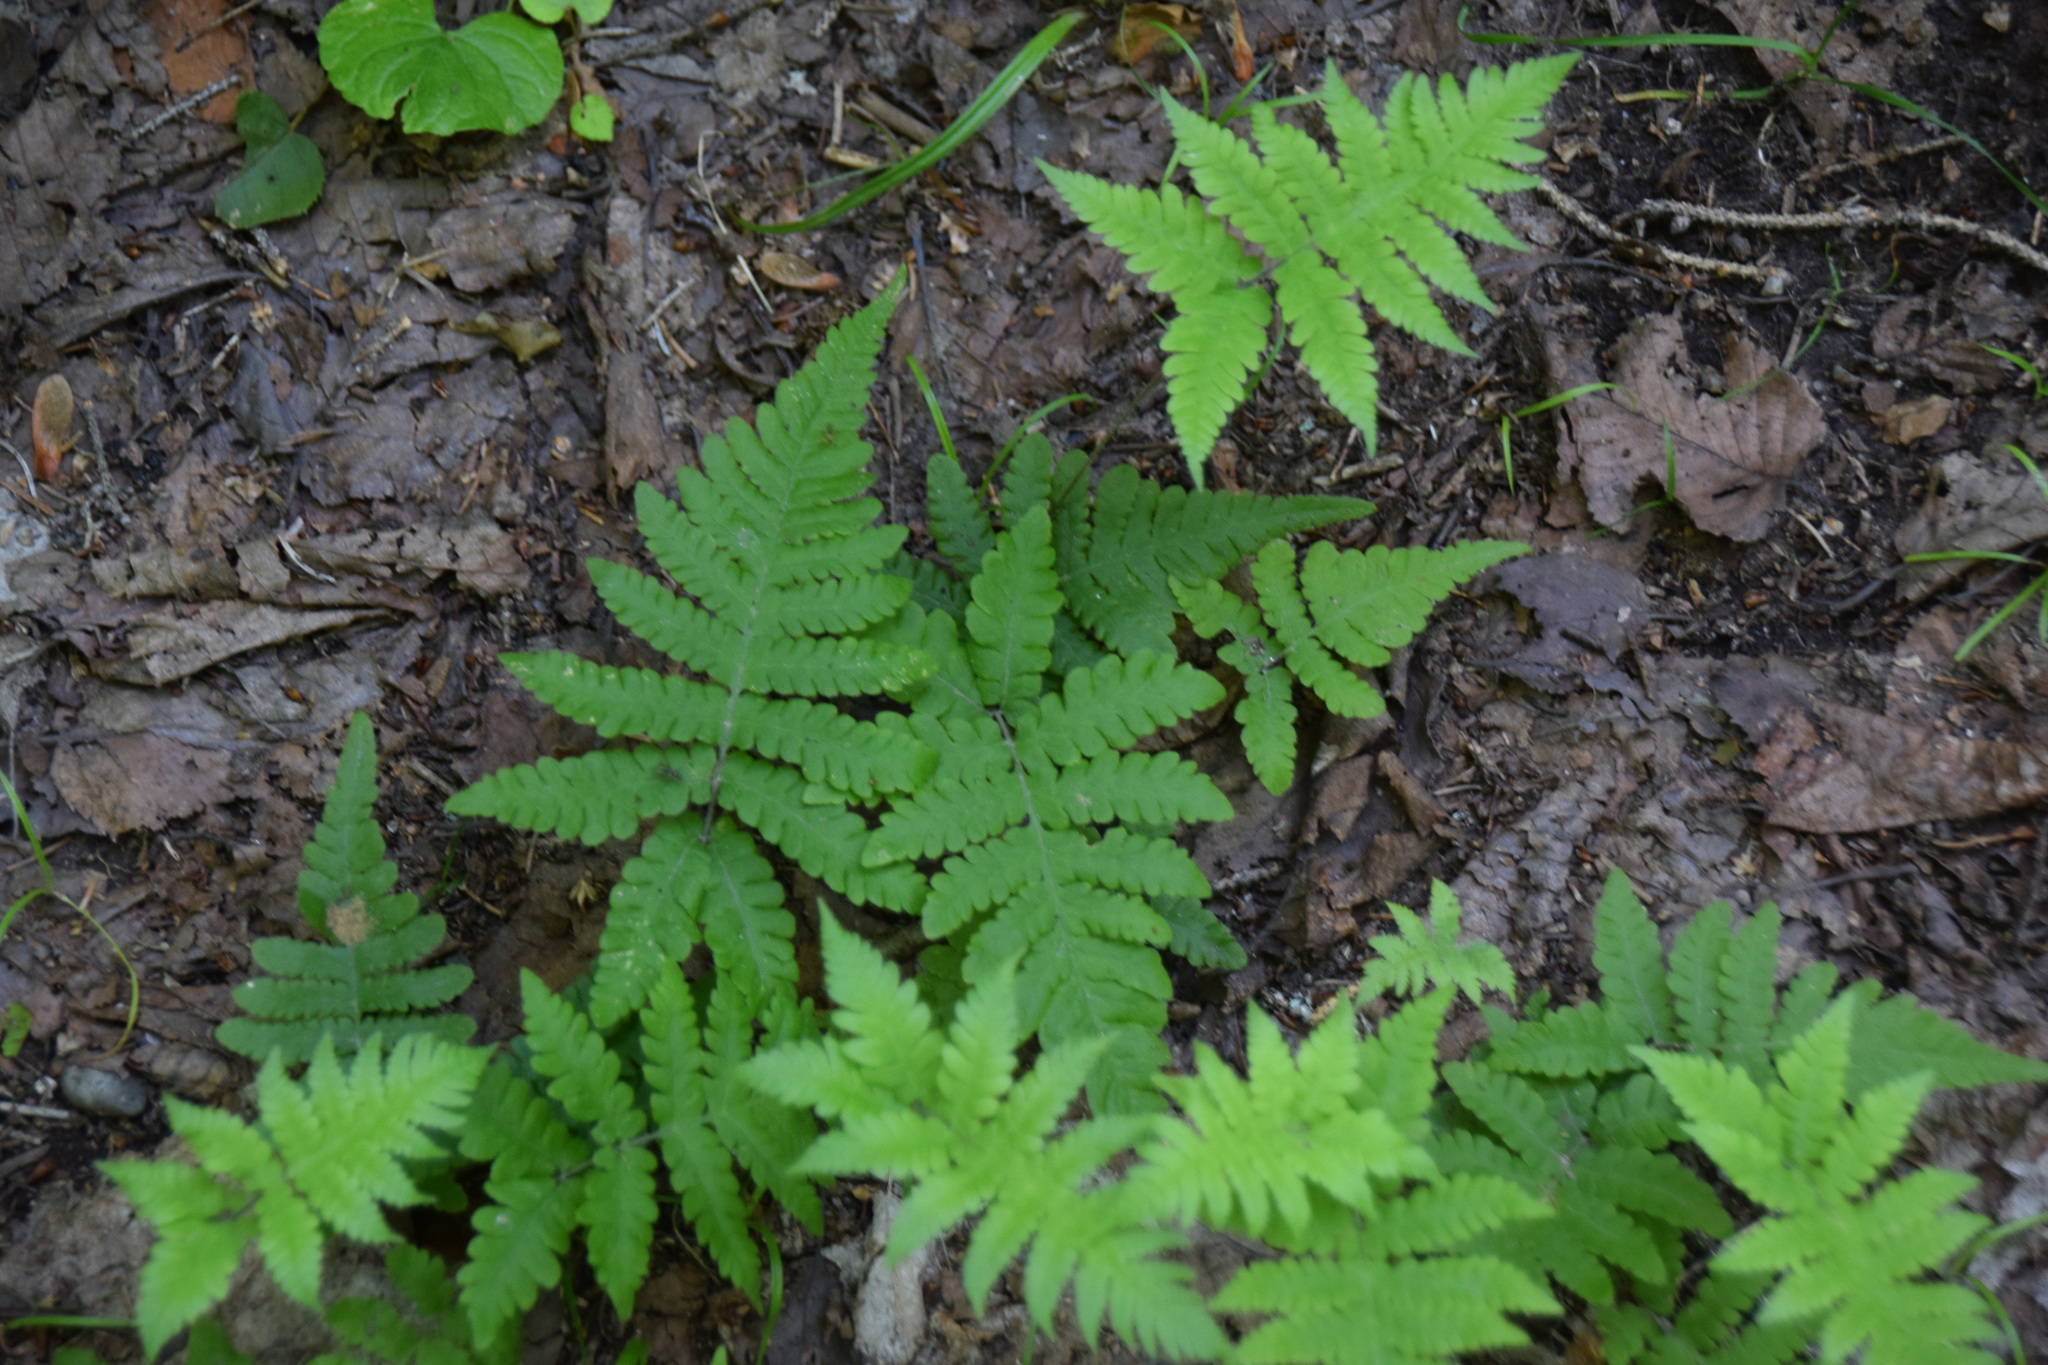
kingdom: Plantae
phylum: Tracheophyta
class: Polypodiopsida
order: Polypodiales
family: Thelypteridaceae
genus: Phegopteris
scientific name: Phegopteris connectilis
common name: Beech fern
